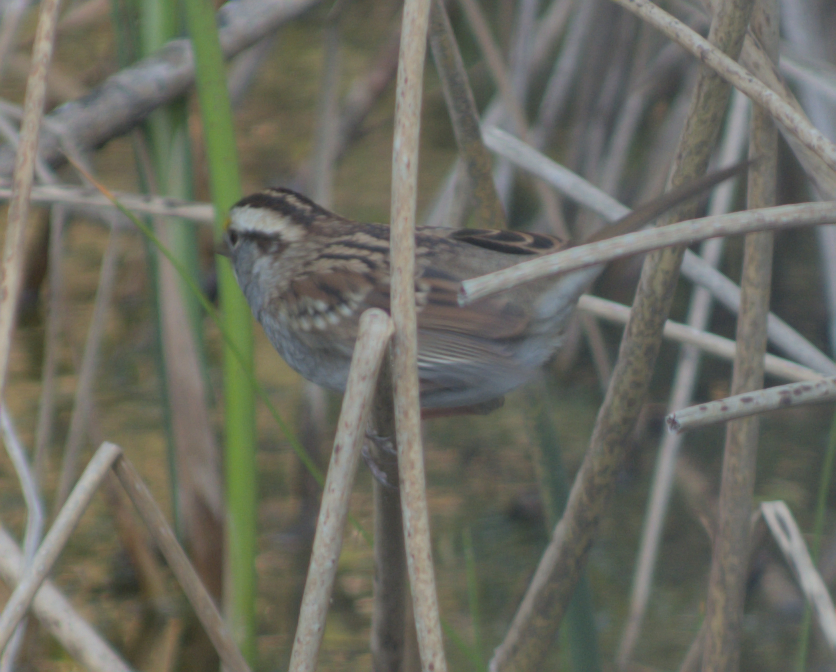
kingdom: Animalia
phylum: Chordata
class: Aves
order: Passeriformes
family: Passerellidae
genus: Zonotrichia
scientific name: Zonotrichia albicollis
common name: White-throated sparrow
